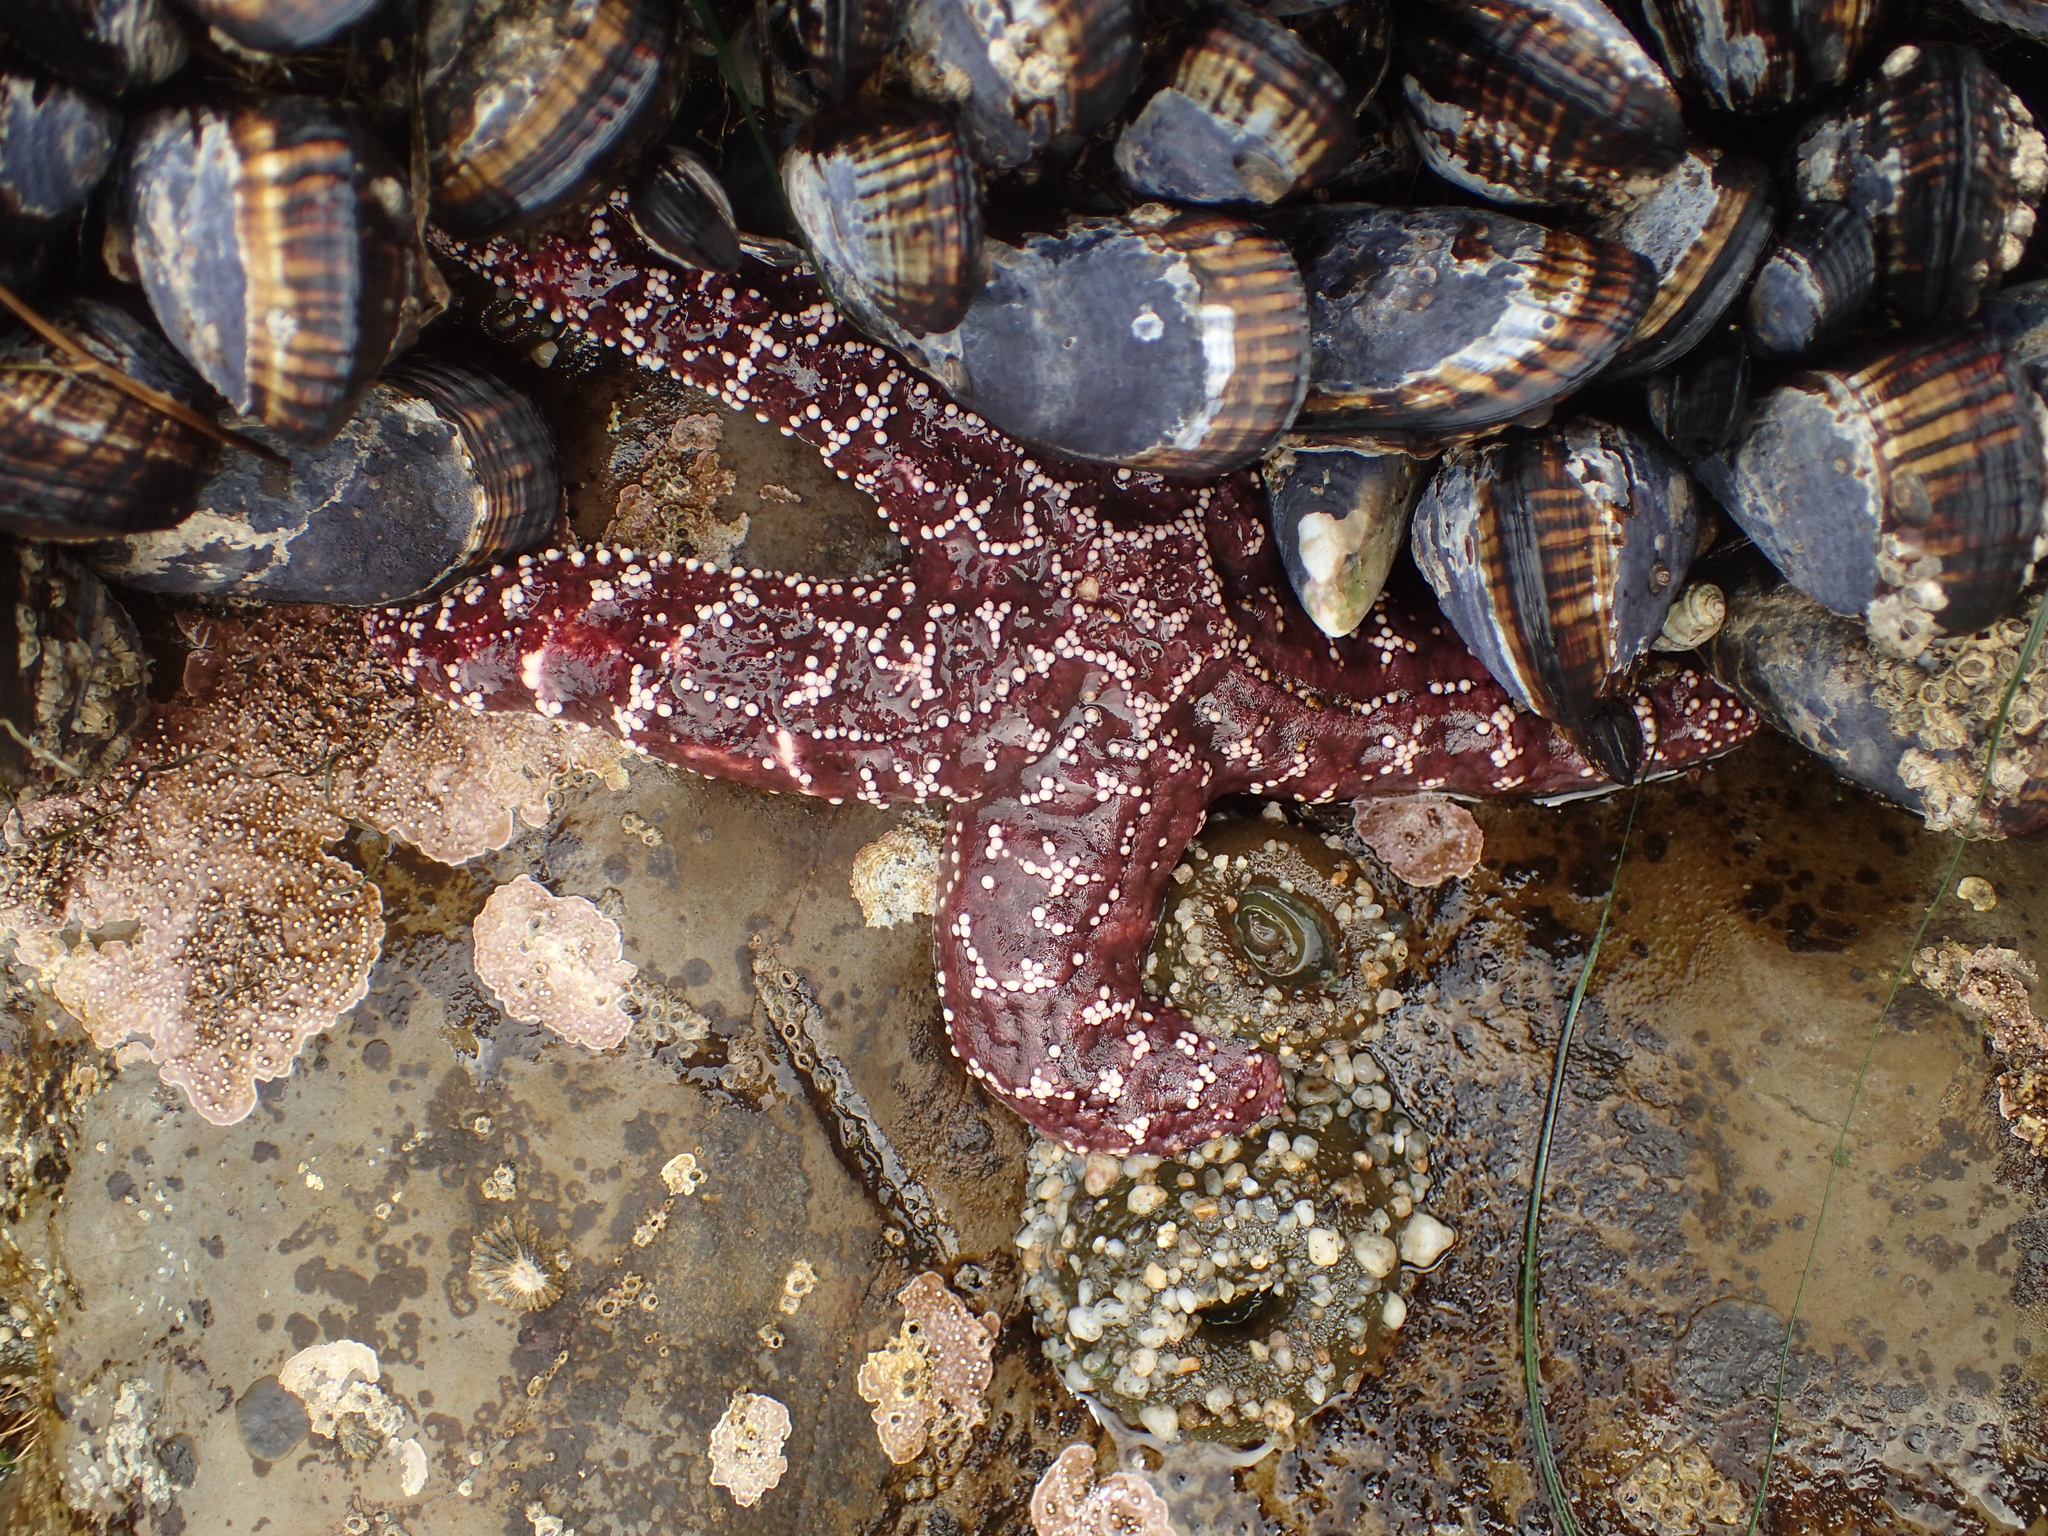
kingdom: Animalia
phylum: Echinodermata
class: Asteroidea
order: Forcipulatida
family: Asteriidae
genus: Pisaster
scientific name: Pisaster ochraceus
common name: Ochre stars
